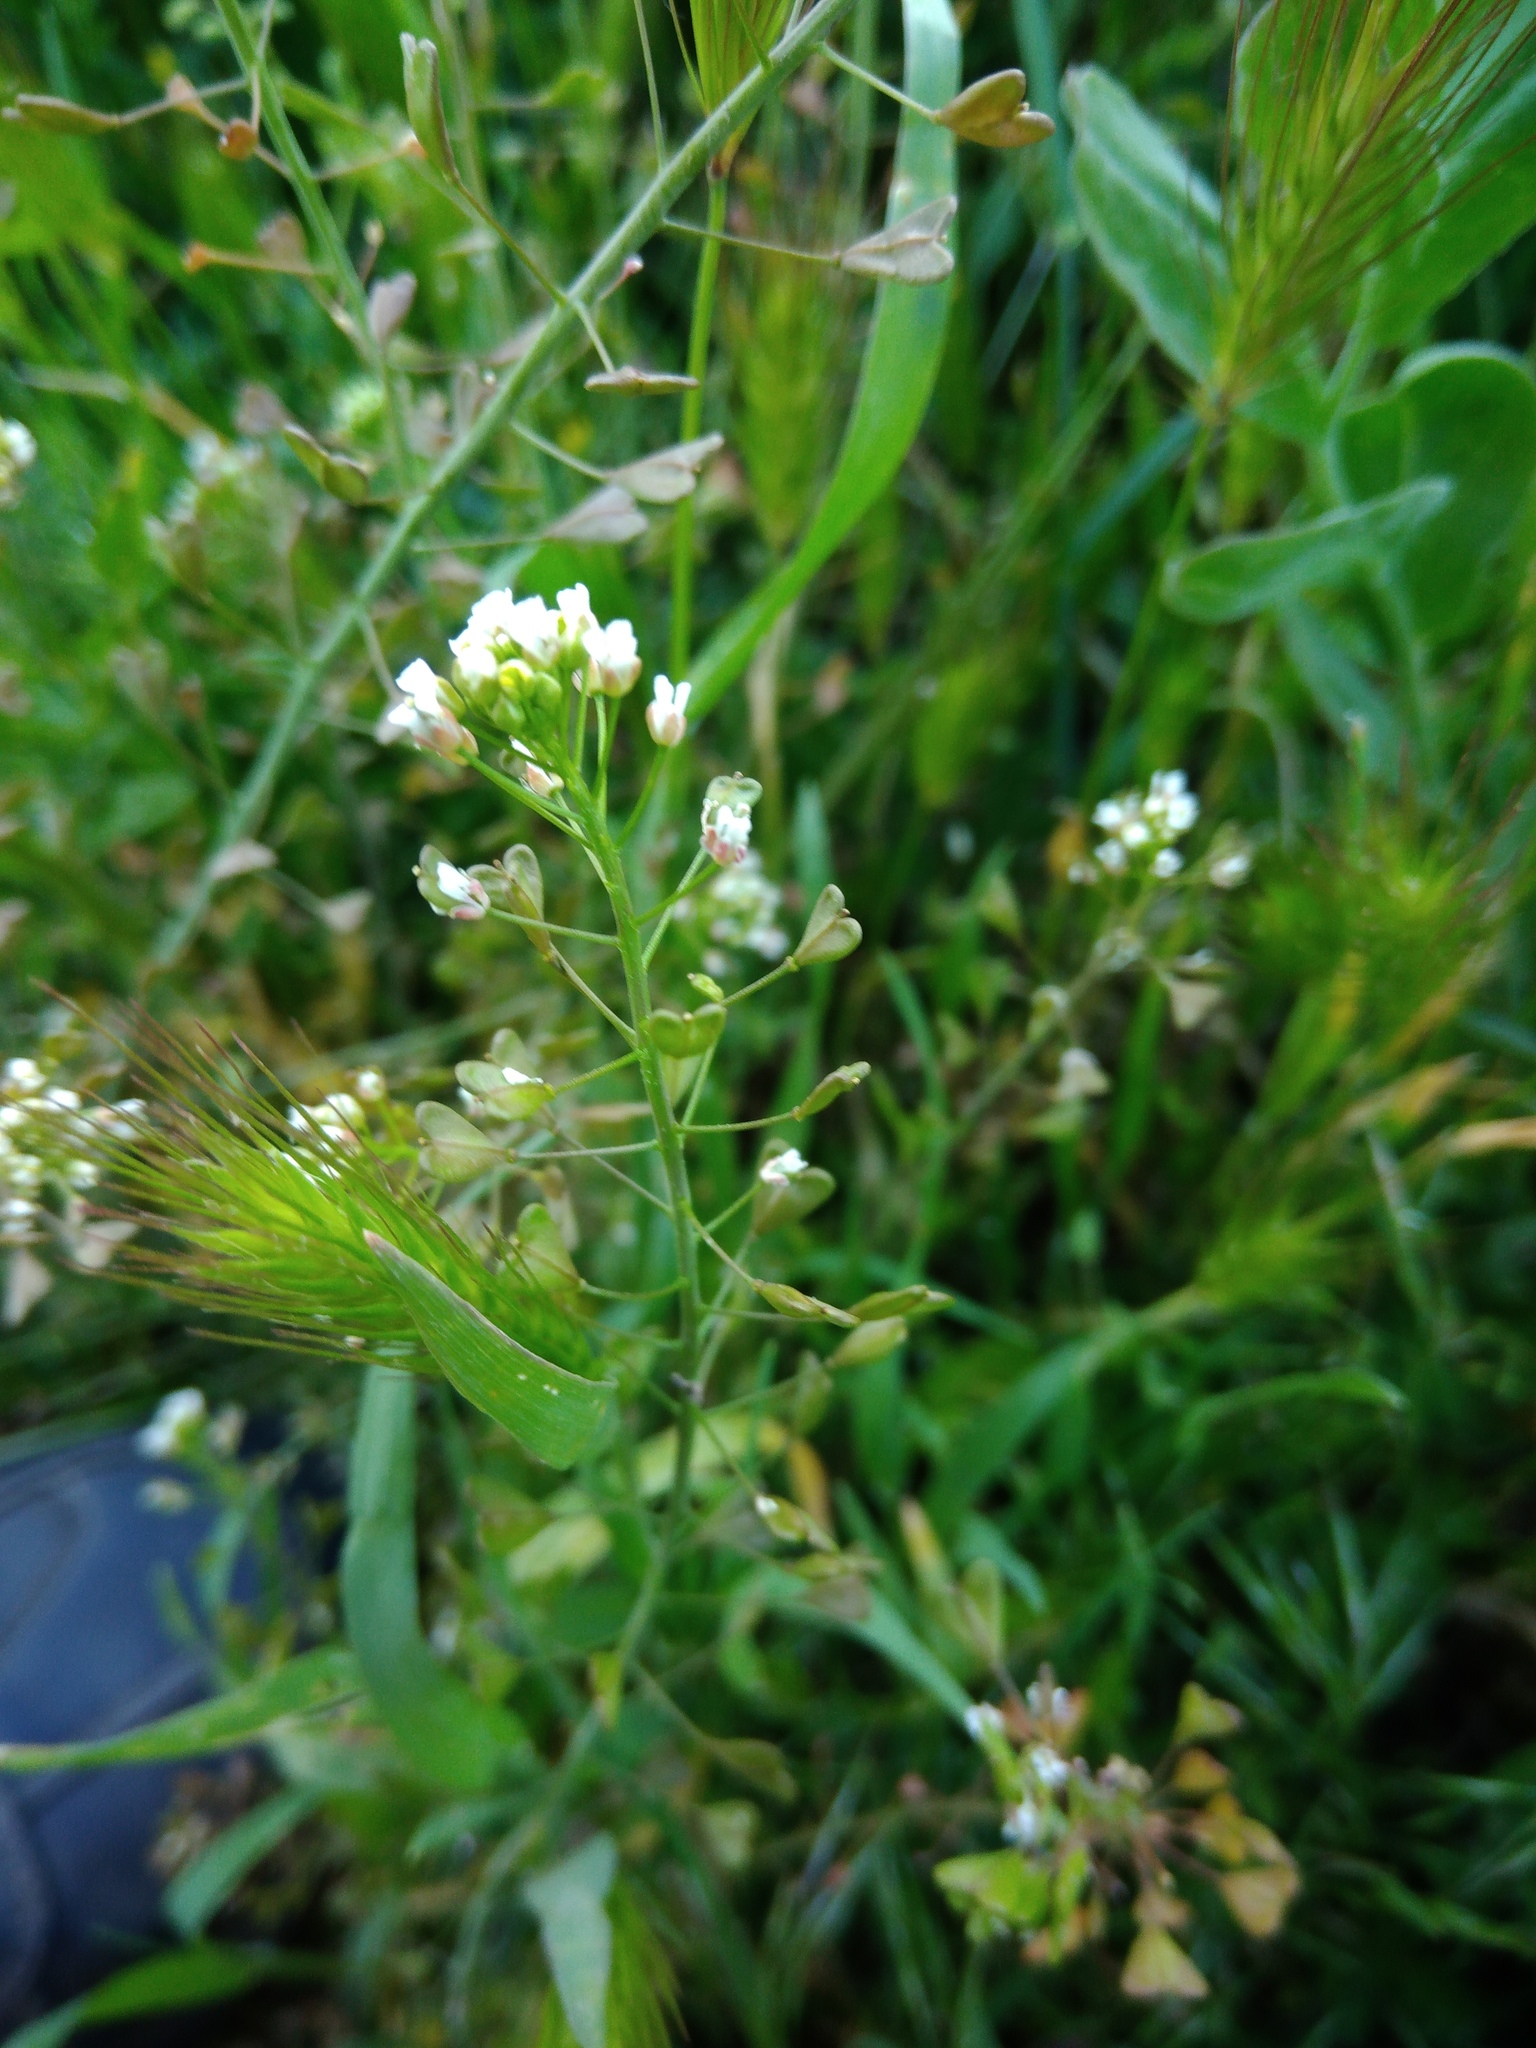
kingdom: Plantae
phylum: Tracheophyta
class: Magnoliopsida
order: Brassicales
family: Brassicaceae
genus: Capsella
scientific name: Capsella bursa-pastoris
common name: Shepherd's purse
